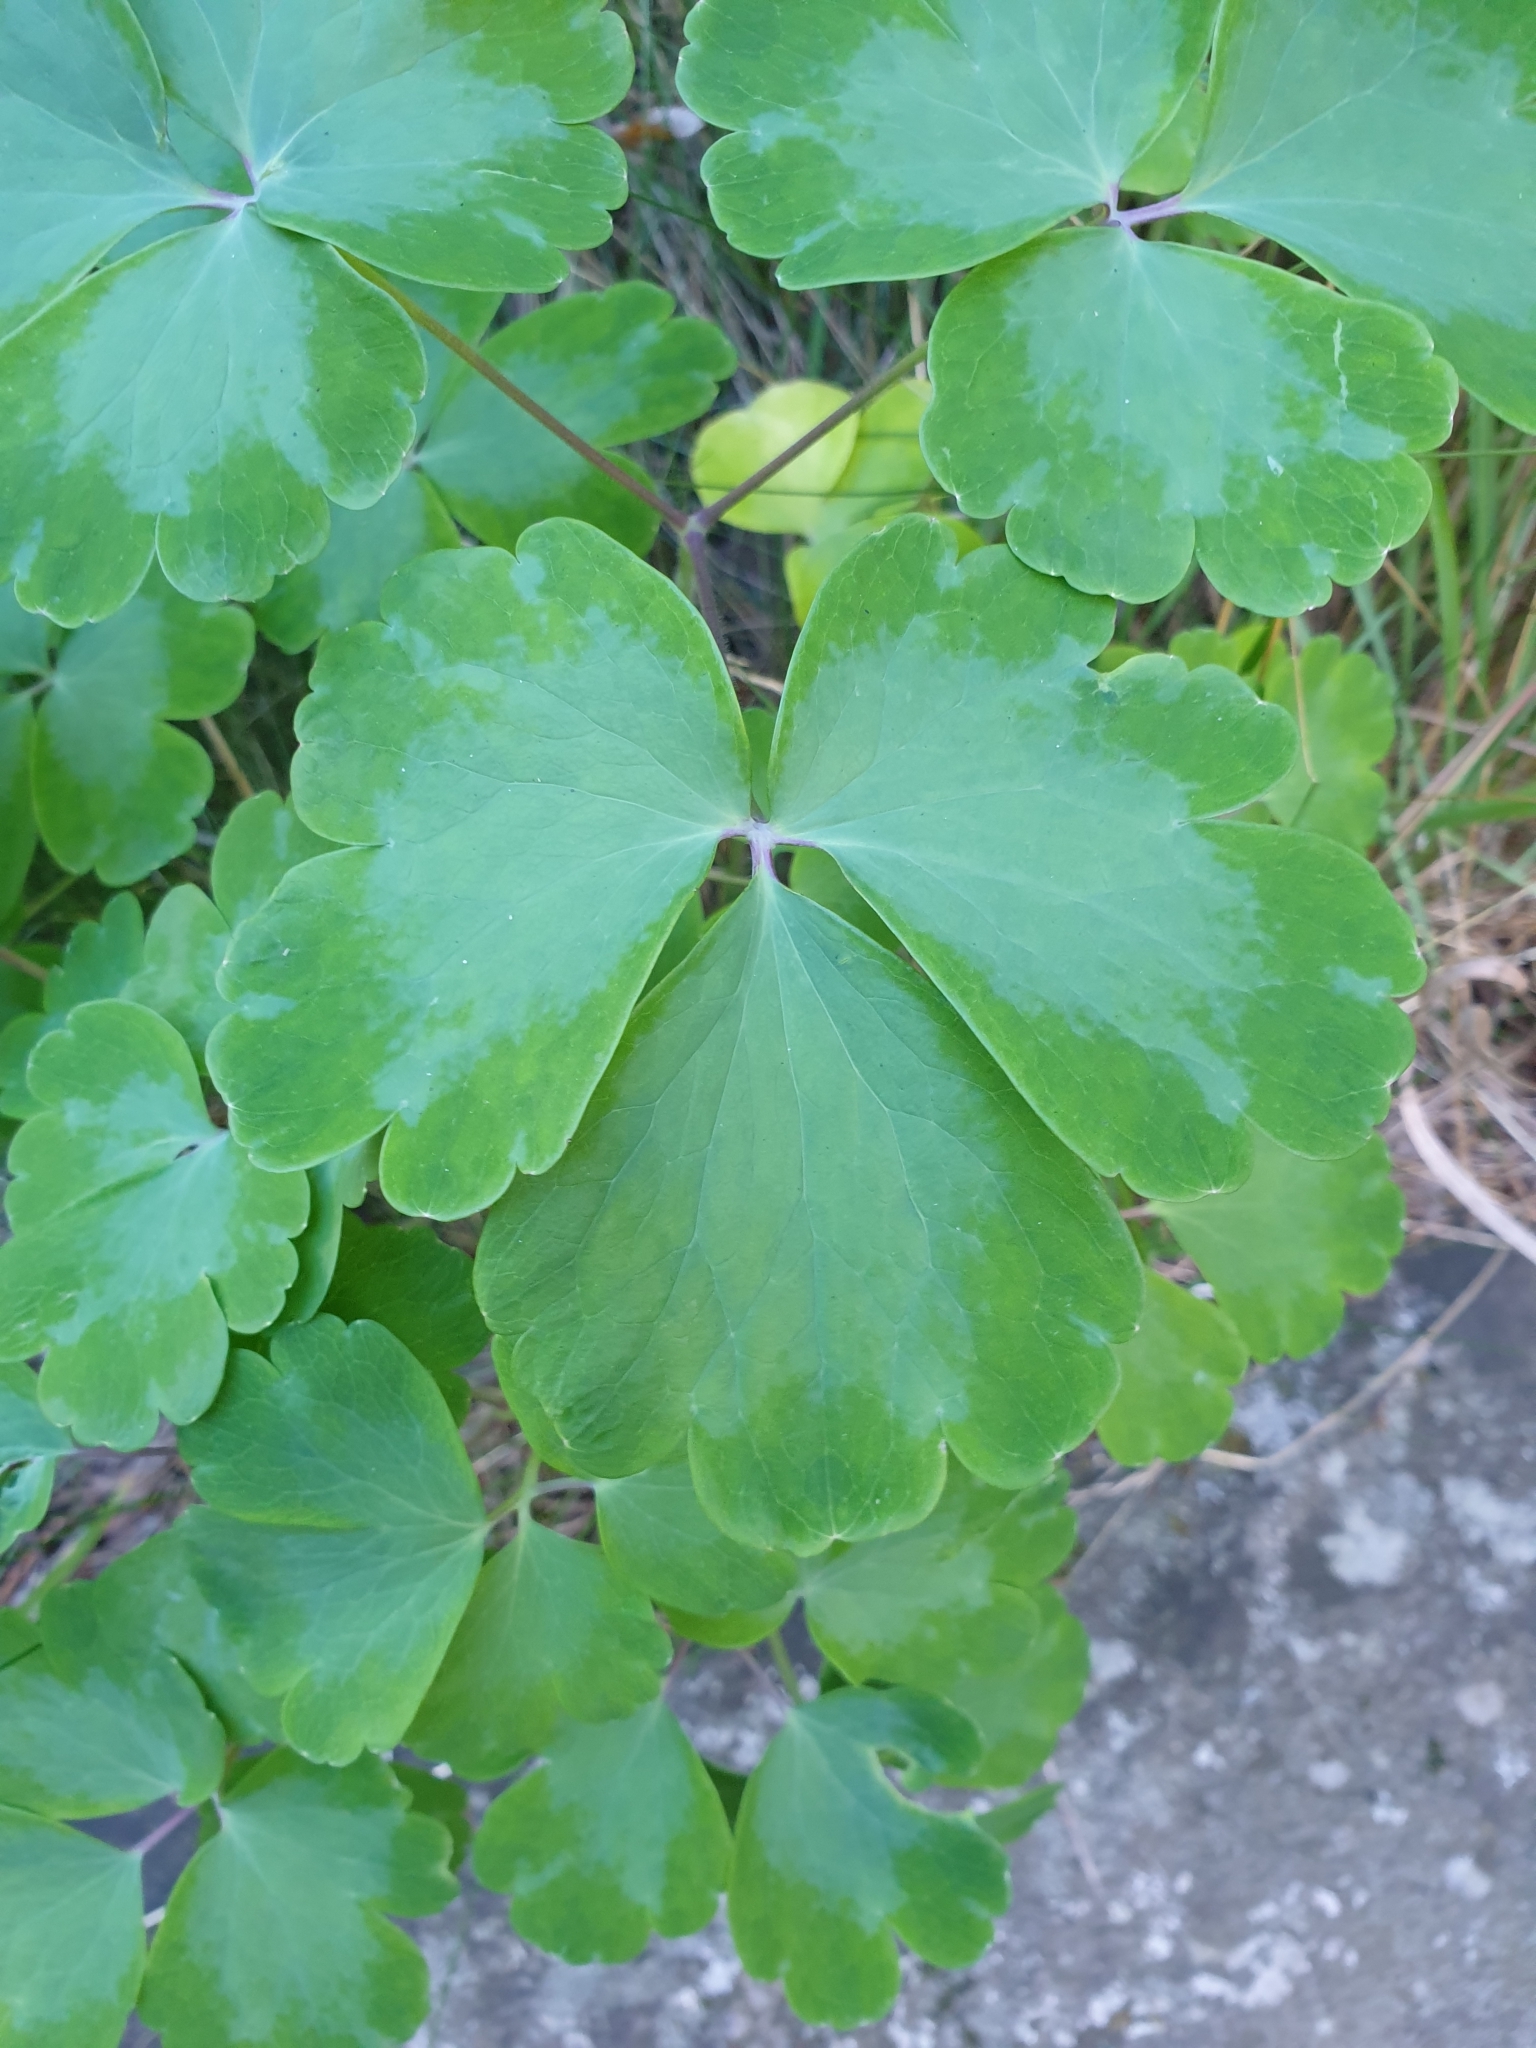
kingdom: Plantae
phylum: Tracheophyta
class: Magnoliopsida
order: Ranunculales
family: Ranunculaceae
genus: Aquilegia
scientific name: Aquilegia vulgaris
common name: Columbine
